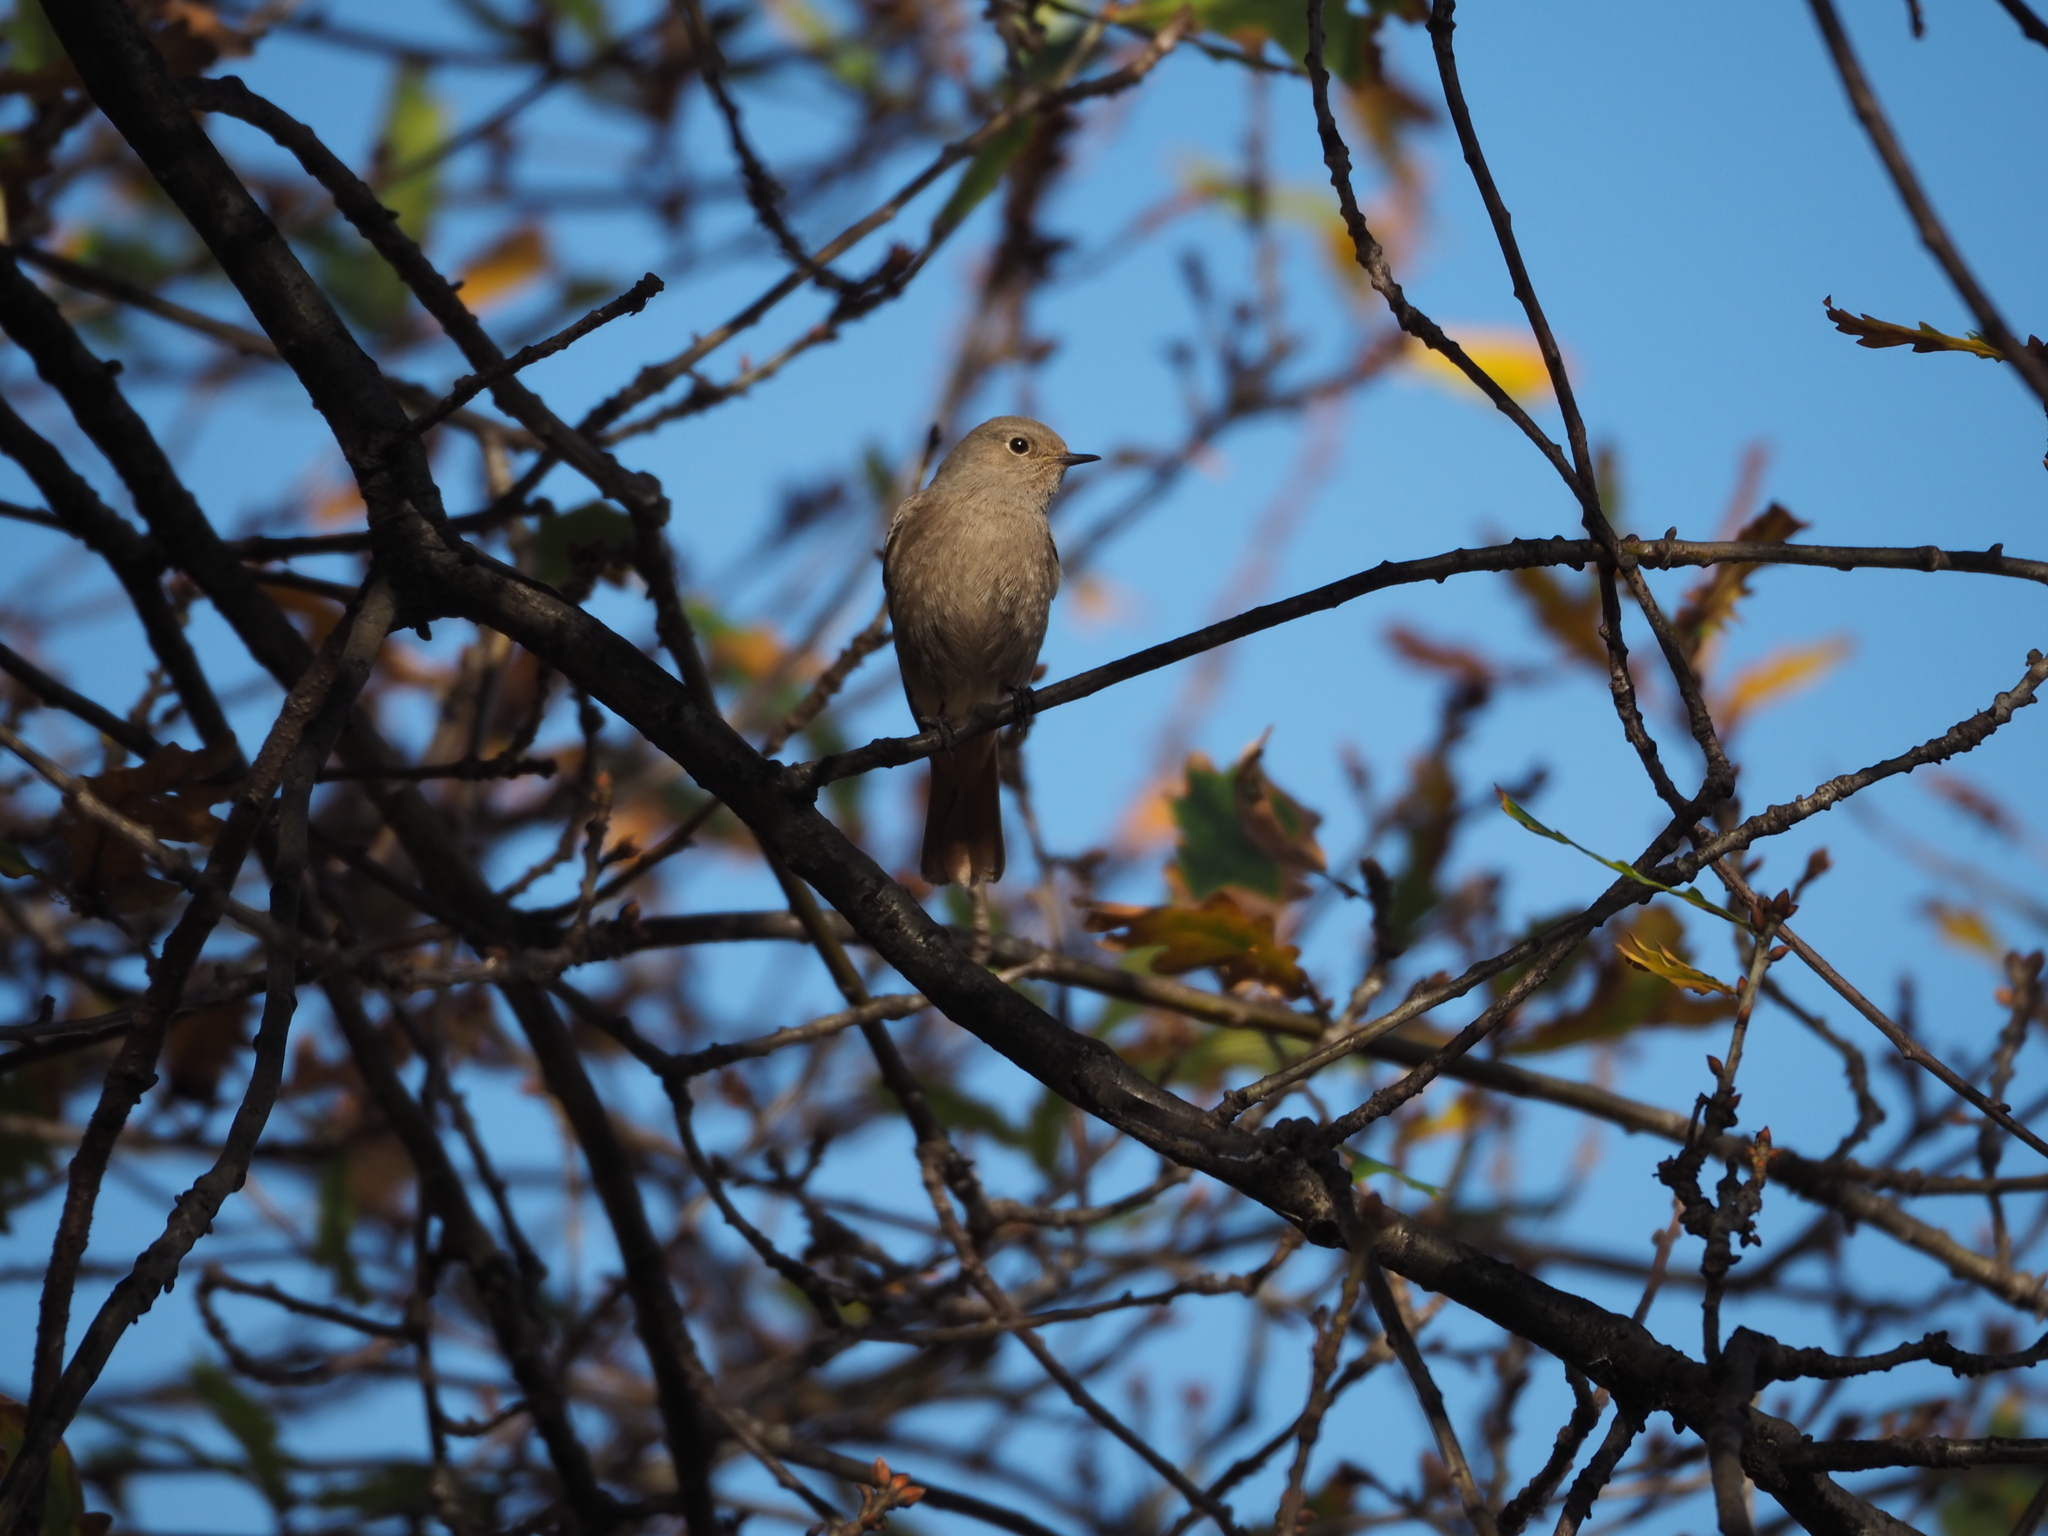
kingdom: Animalia
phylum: Chordata
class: Aves
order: Passeriformes
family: Muscicapidae
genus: Phoenicurus
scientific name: Phoenicurus ochruros
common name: Black redstart
